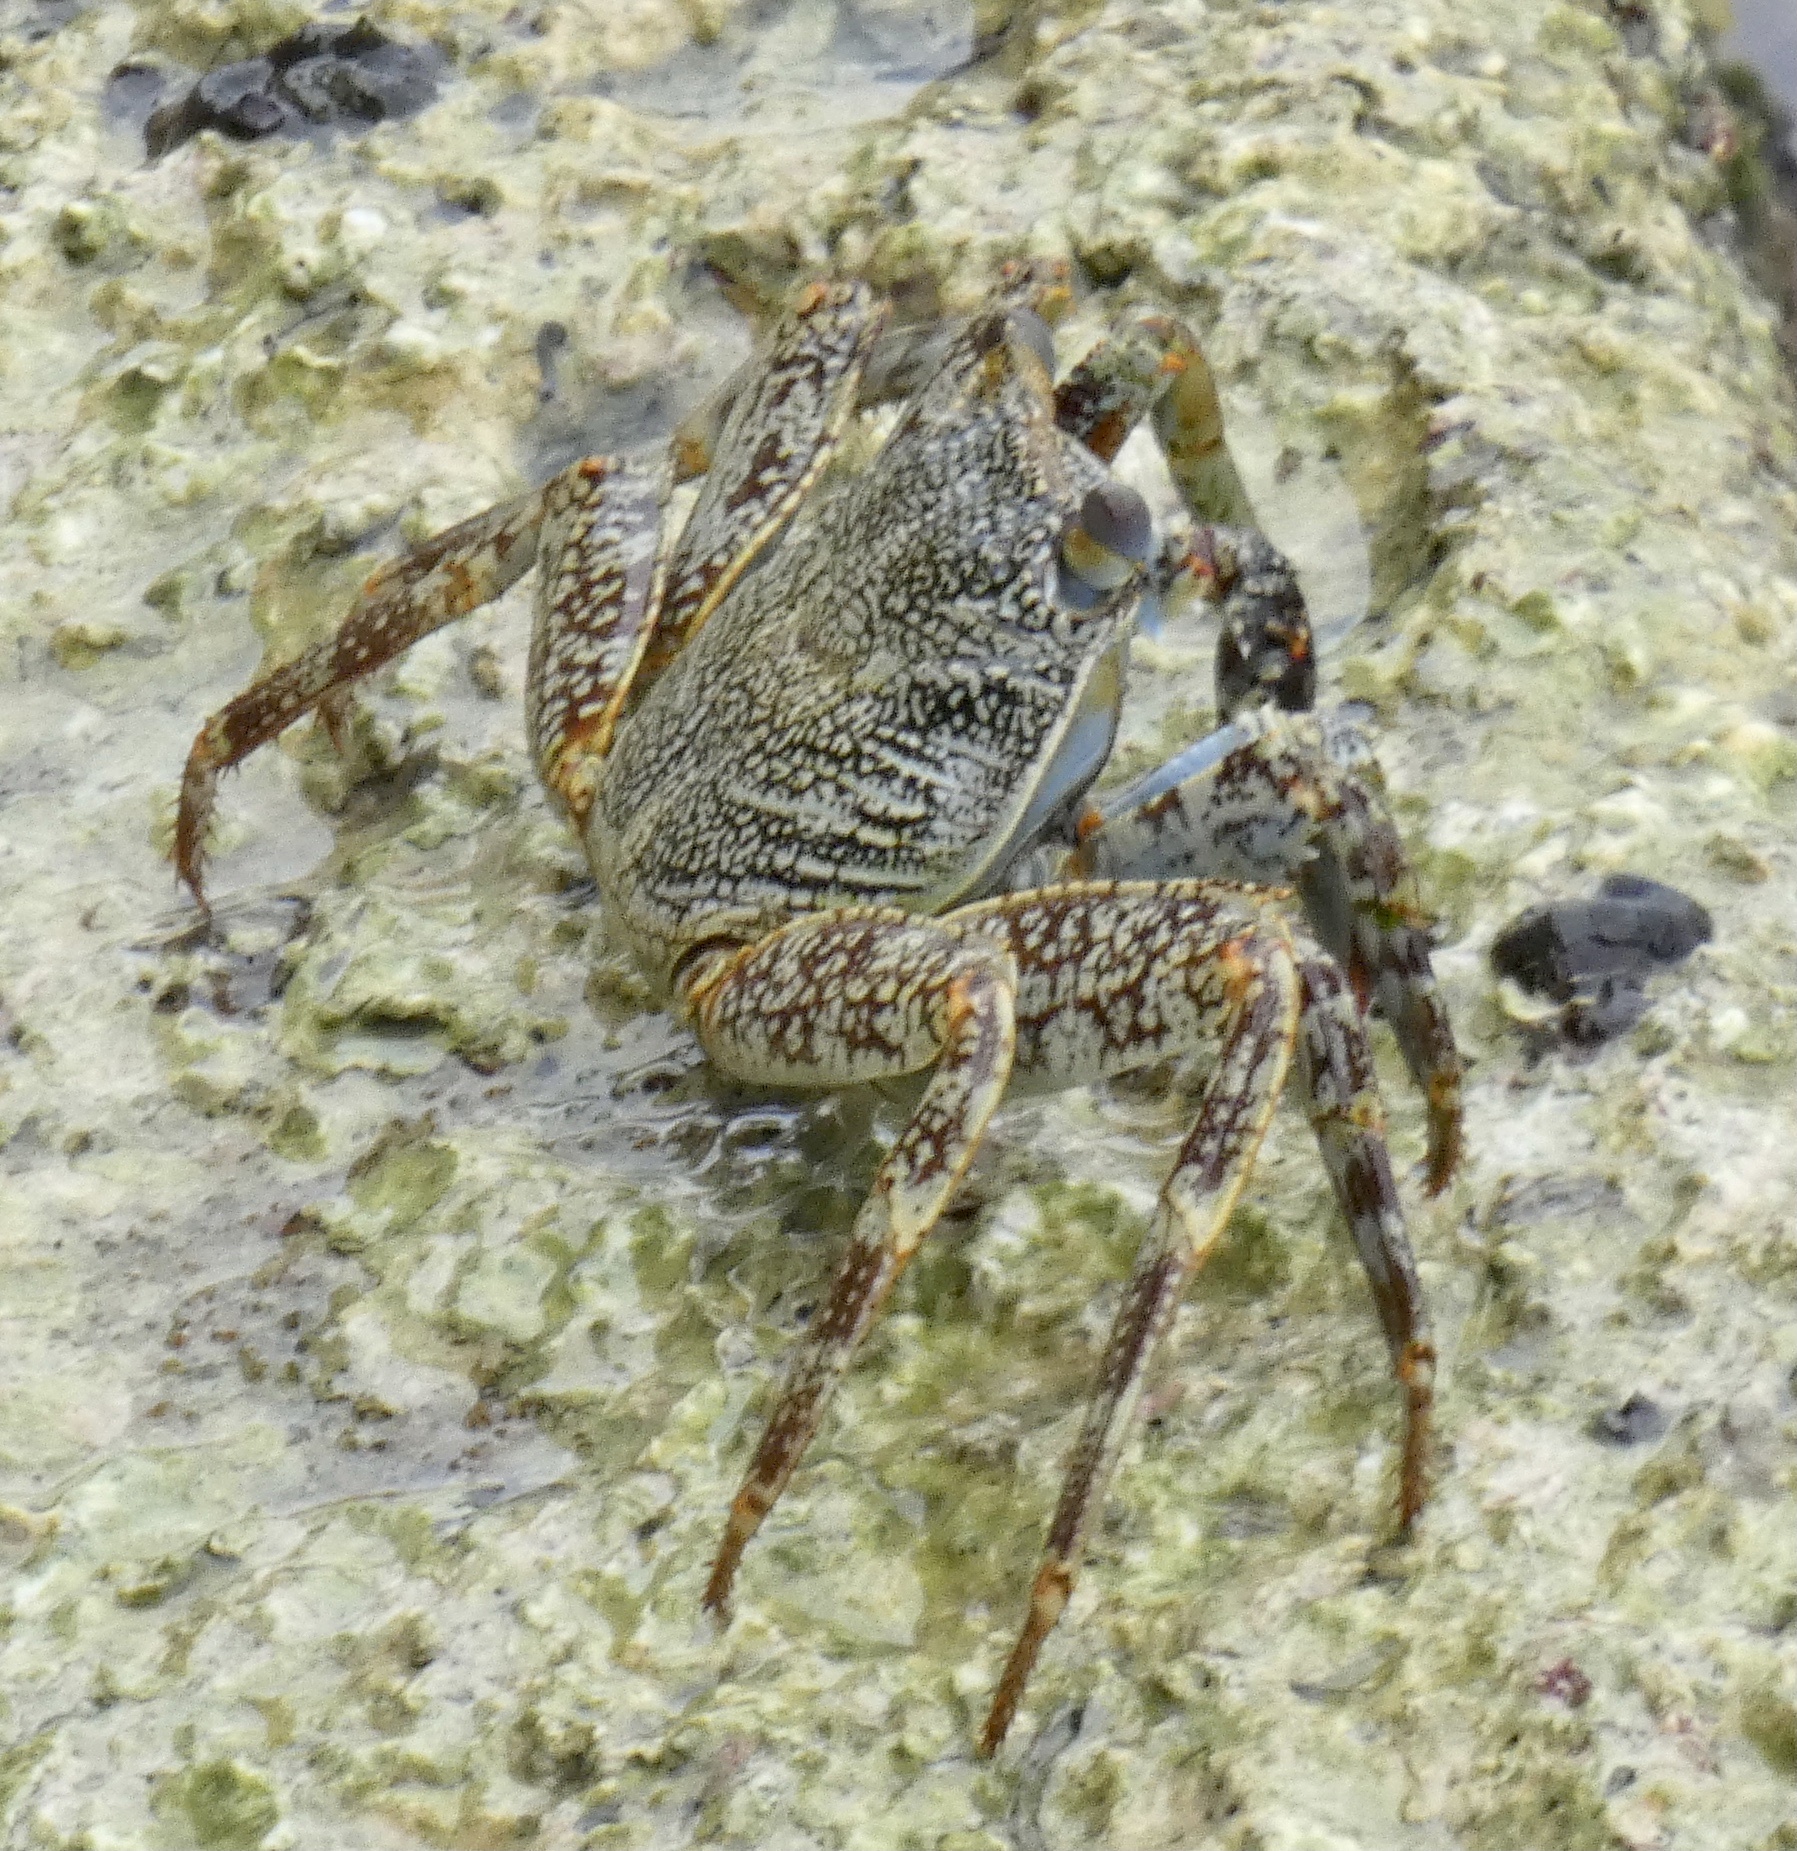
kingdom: Animalia
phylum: Arthropoda
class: Malacostraca
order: Decapoda
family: Grapsidae
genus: Grapsus
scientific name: Grapsus grapsus
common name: Sally lightfoot
